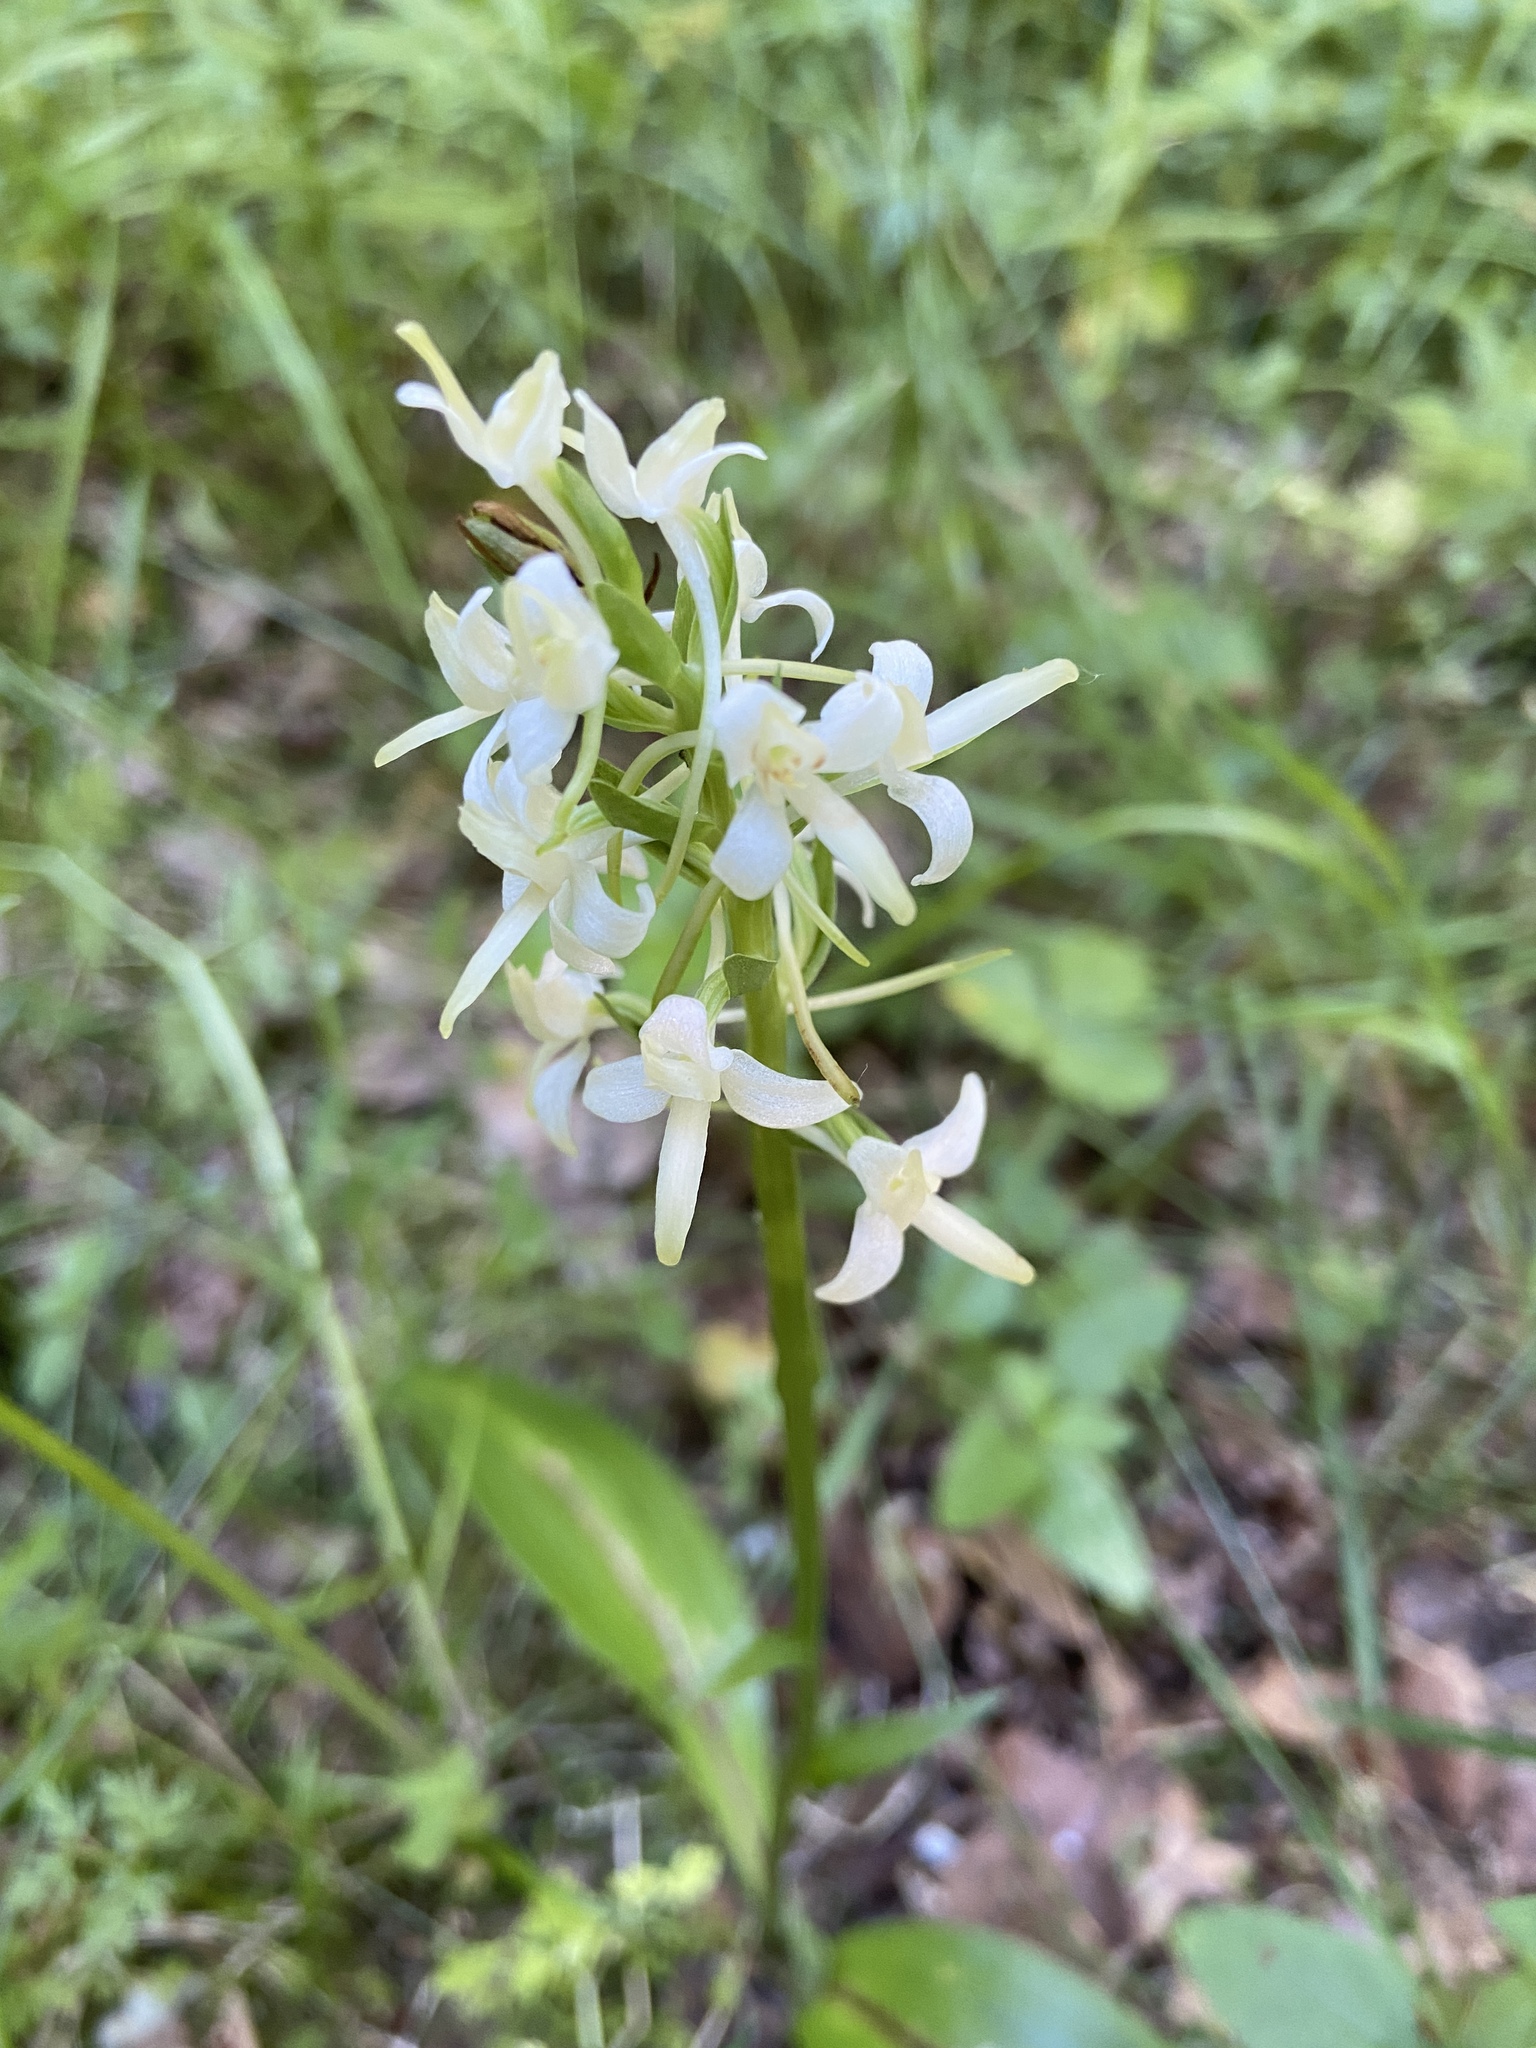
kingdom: Plantae
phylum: Tracheophyta
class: Liliopsida
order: Asparagales
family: Orchidaceae
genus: Platanthera
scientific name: Platanthera bifolia
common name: Lesser butterfly-orchid
